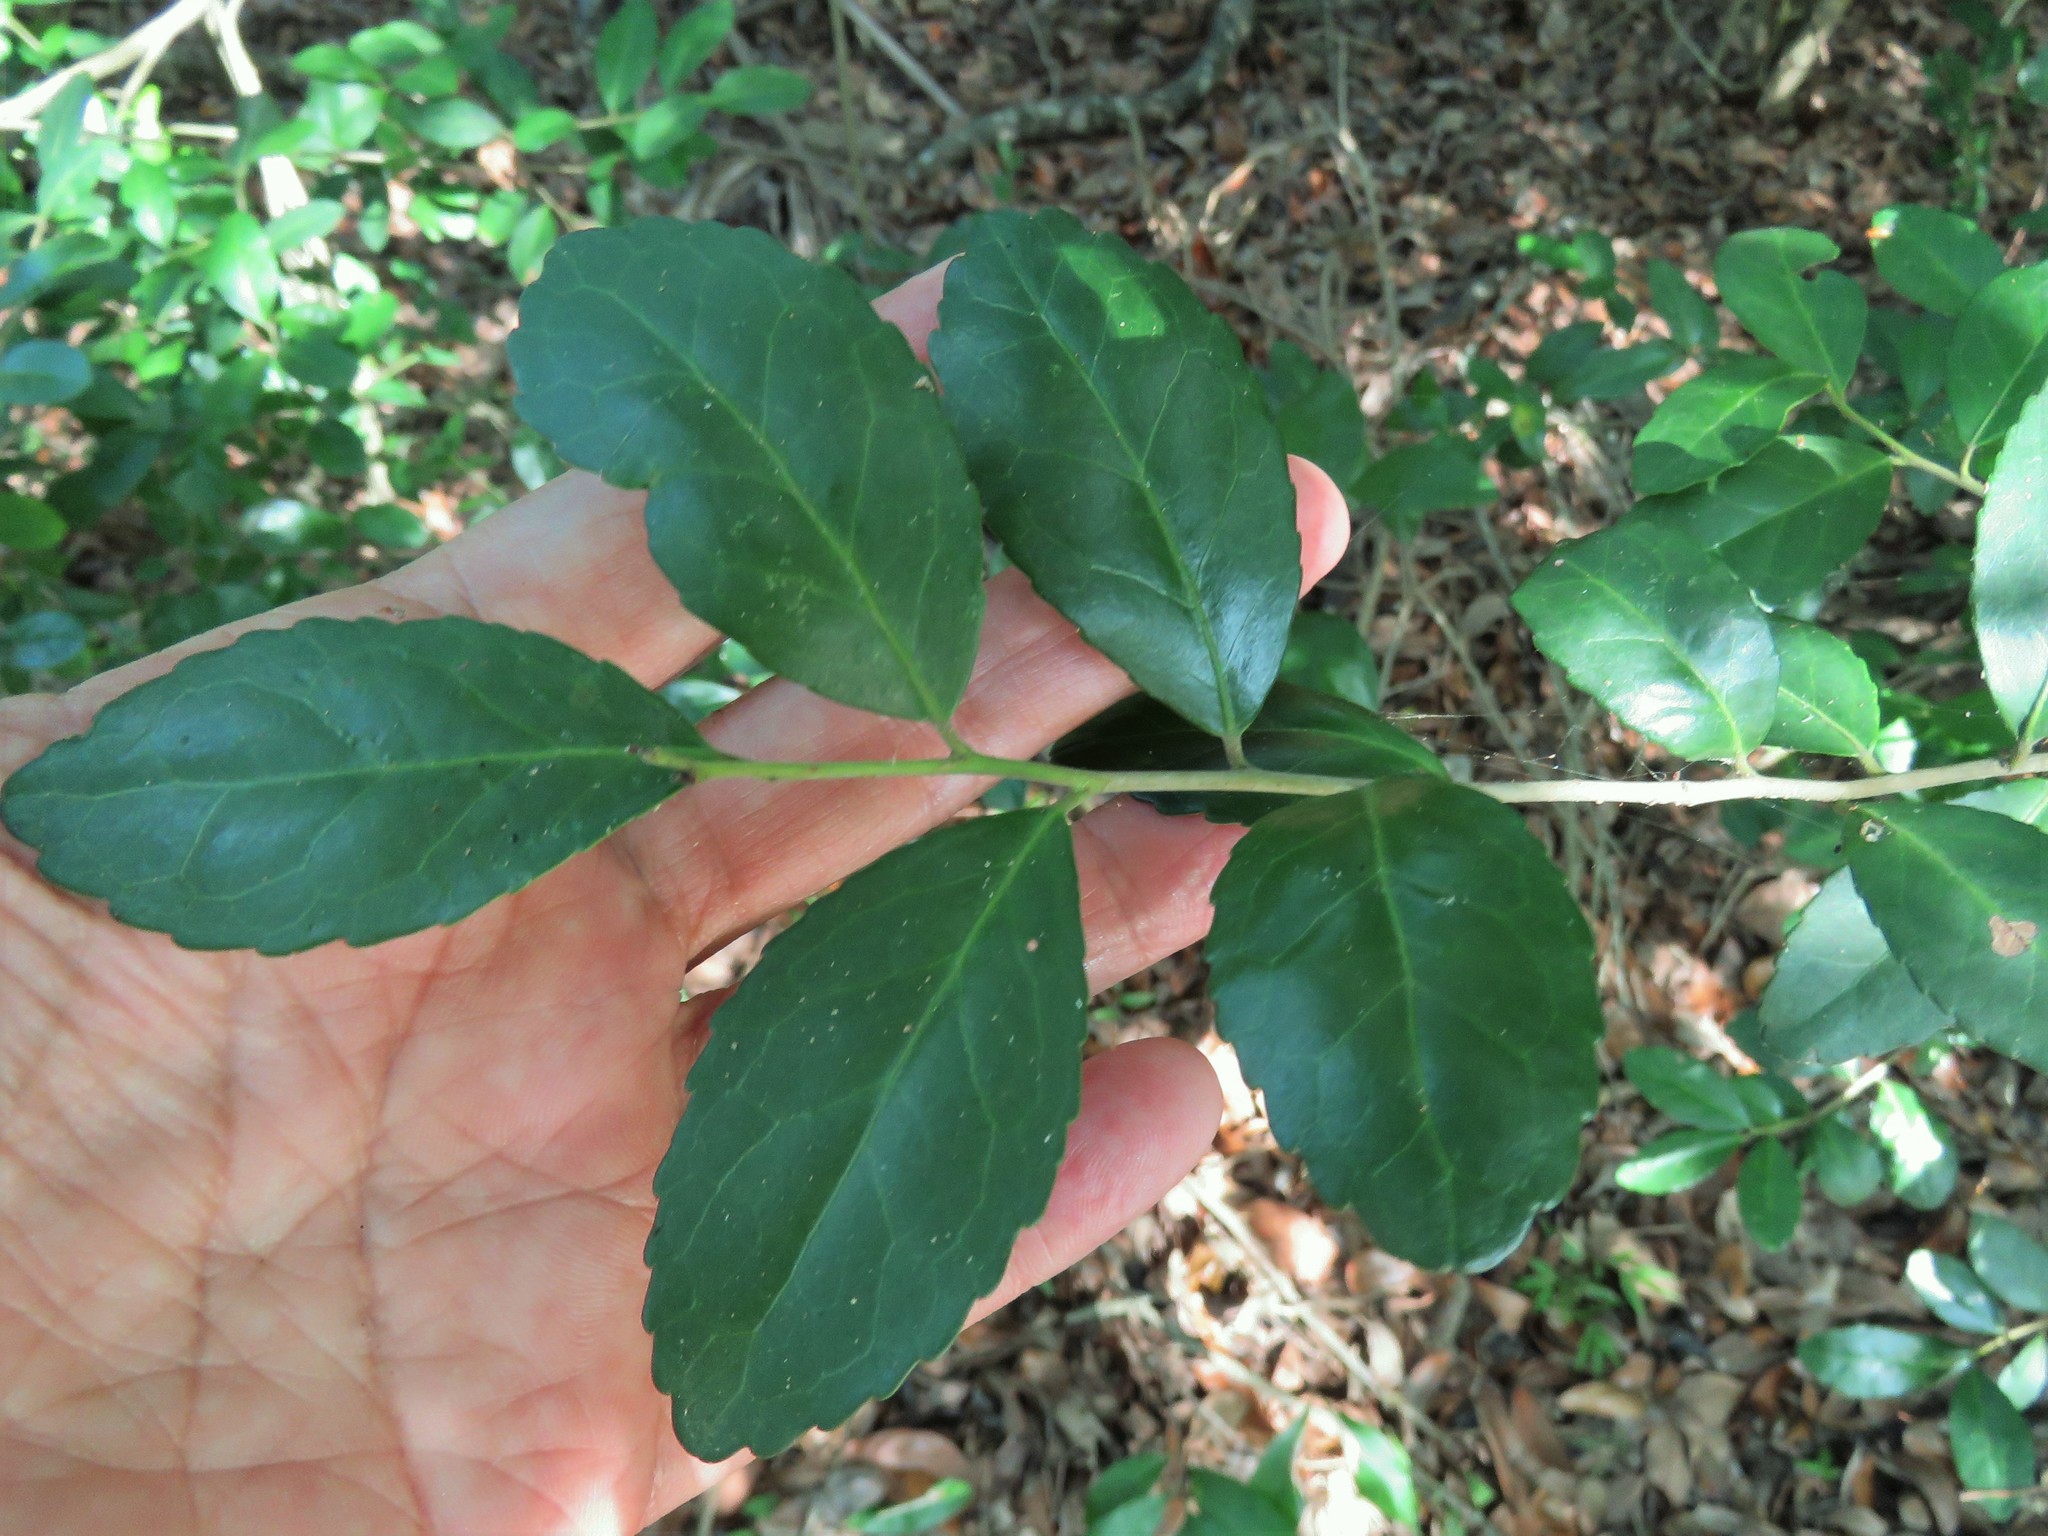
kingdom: Plantae
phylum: Tracheophyta
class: Magnoliopsida
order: Aquifoliales
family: Aquifoliaceae
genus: Ilex
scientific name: Ilex vomitoria
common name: Yaupon holly
